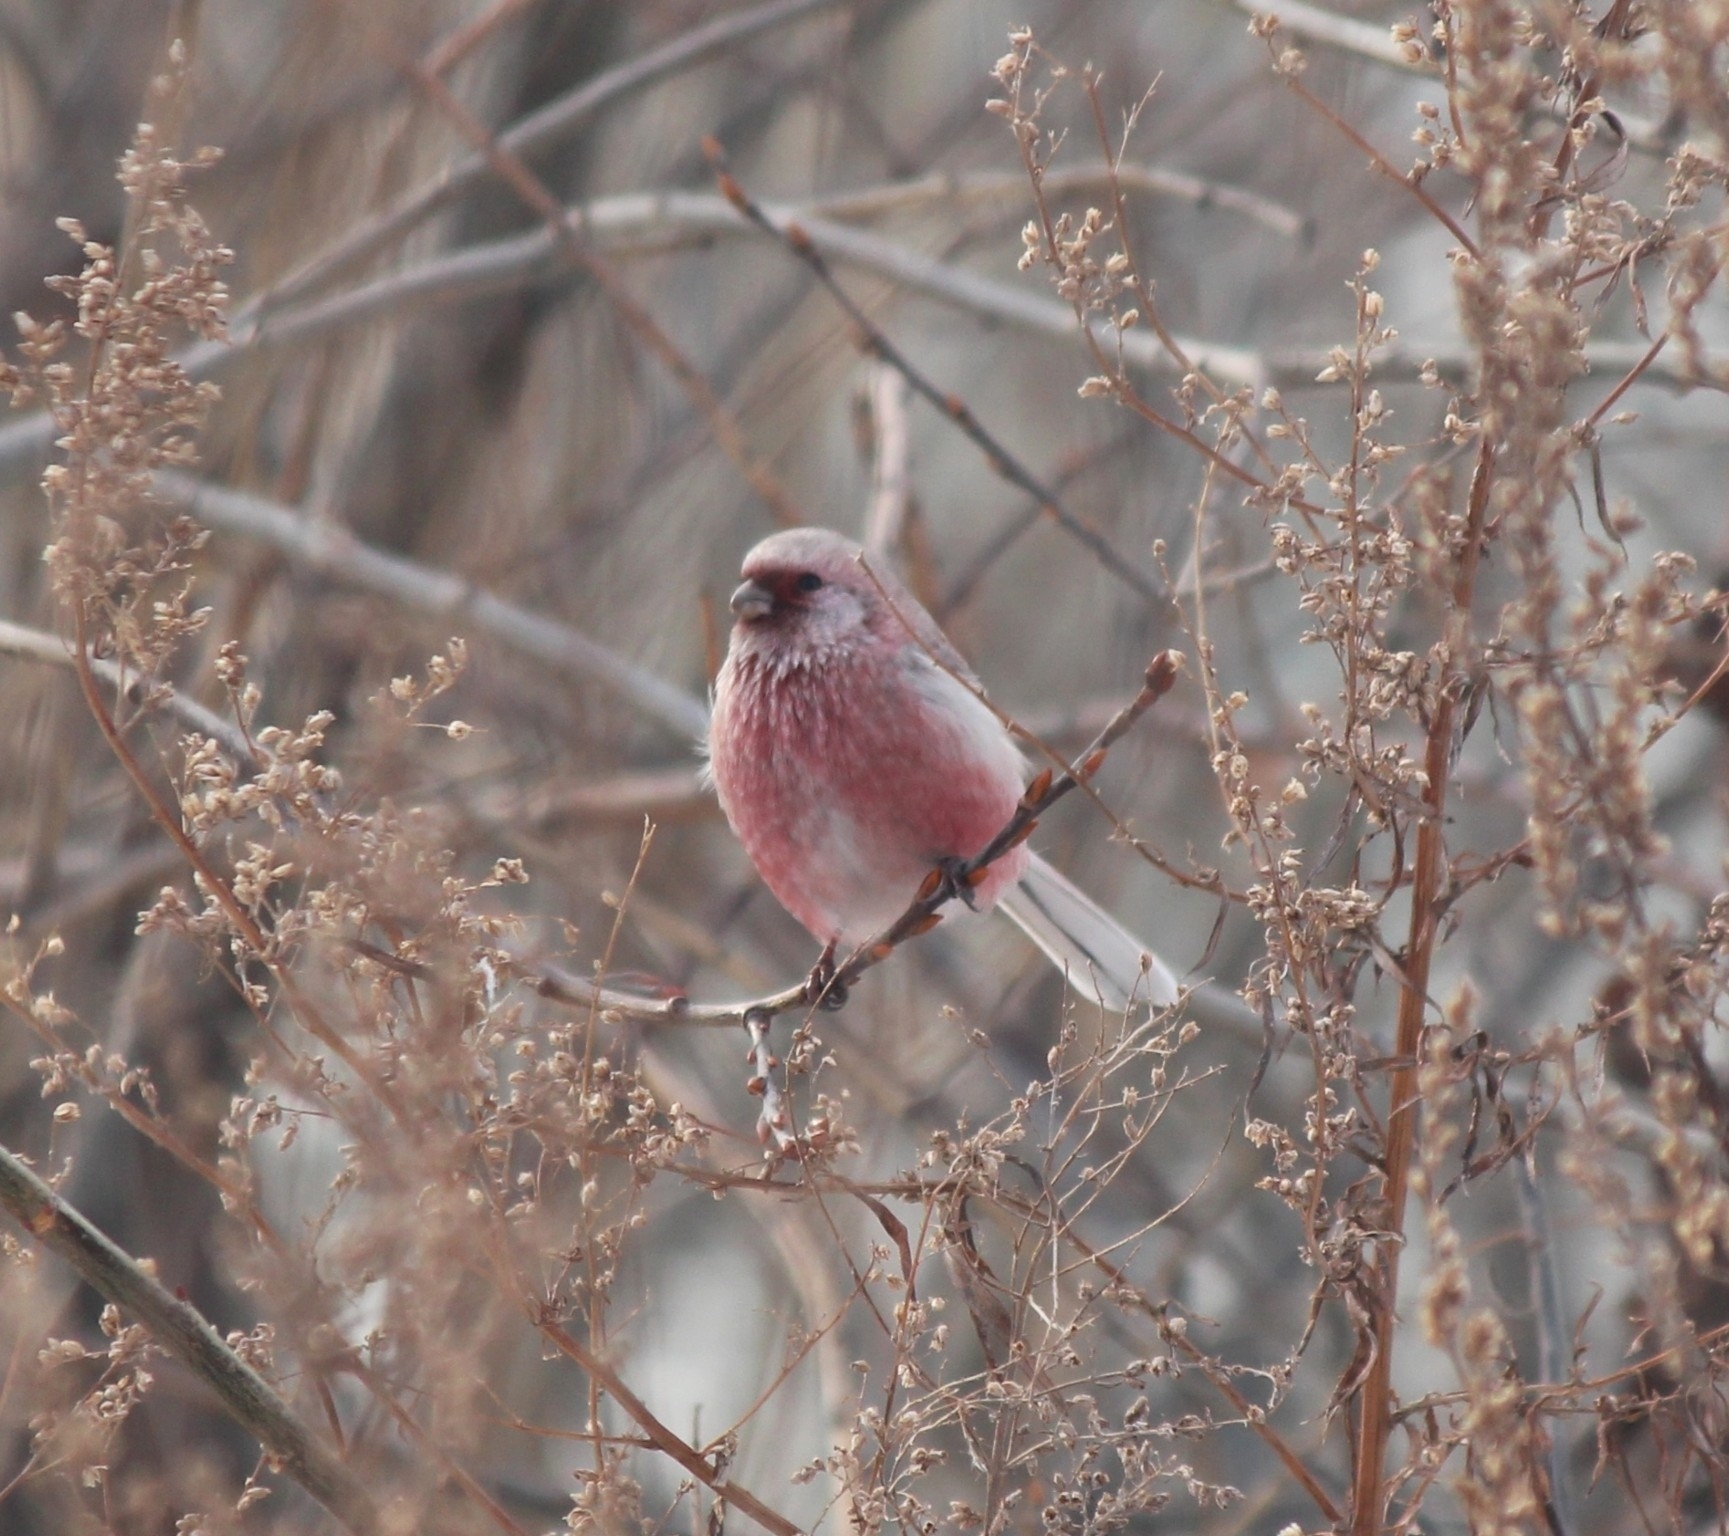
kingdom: Animalia
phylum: Chordata
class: Aves
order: Passeriformes
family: Fringillidae
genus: Carpodacus
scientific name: Carpodacus sibiricus
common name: Long-tailed rosefinch
